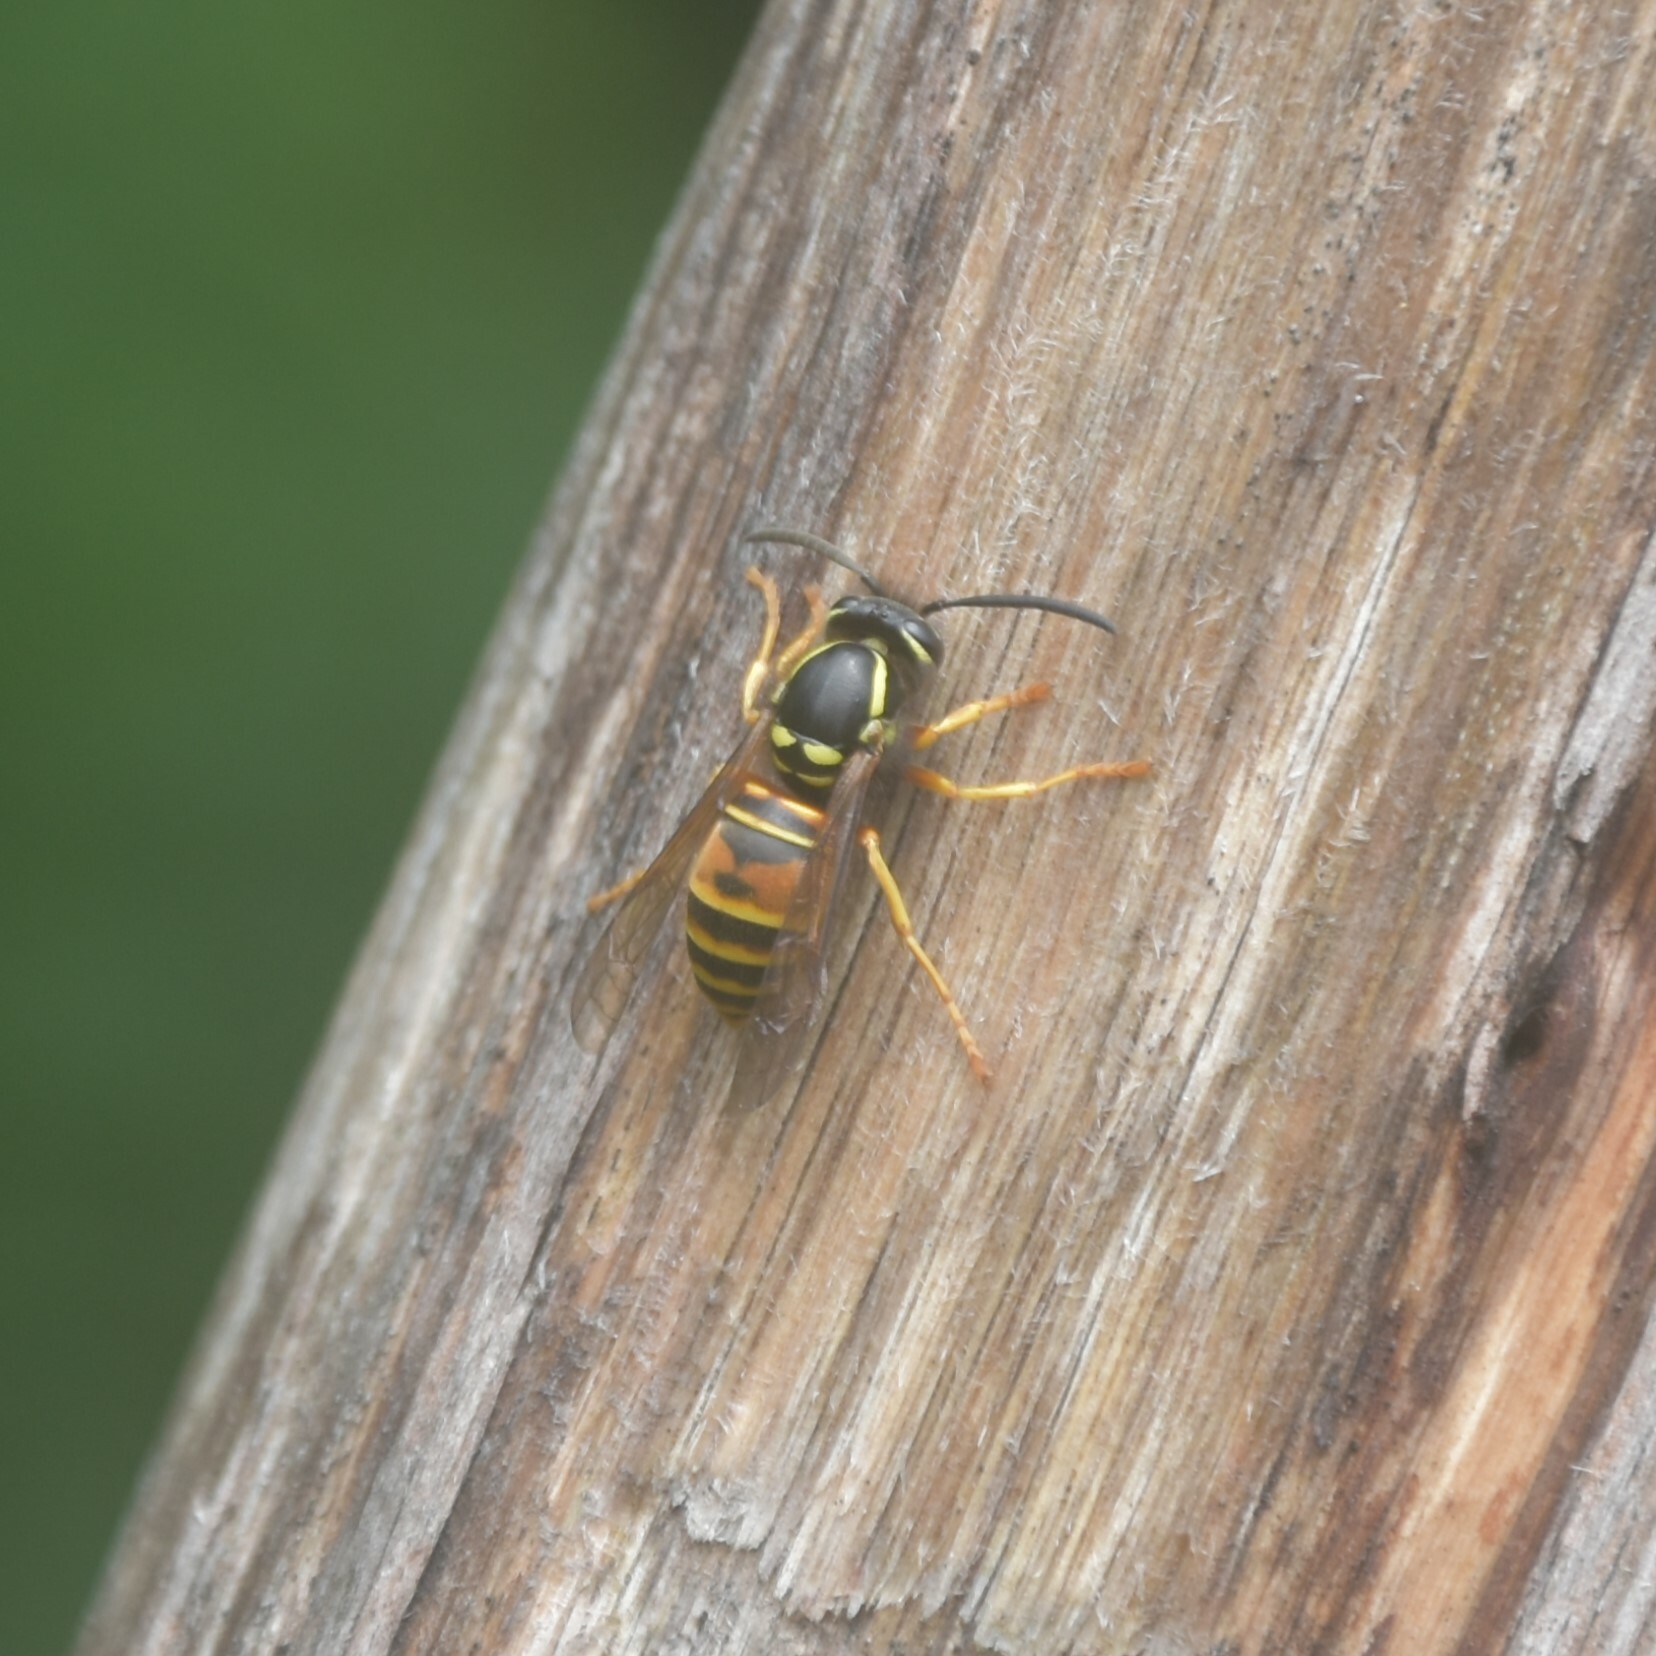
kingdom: Animalia
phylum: Arthropoda
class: Insecta
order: Hymenoptera
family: Vespidae
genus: Vespula
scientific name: Vespula nursei
